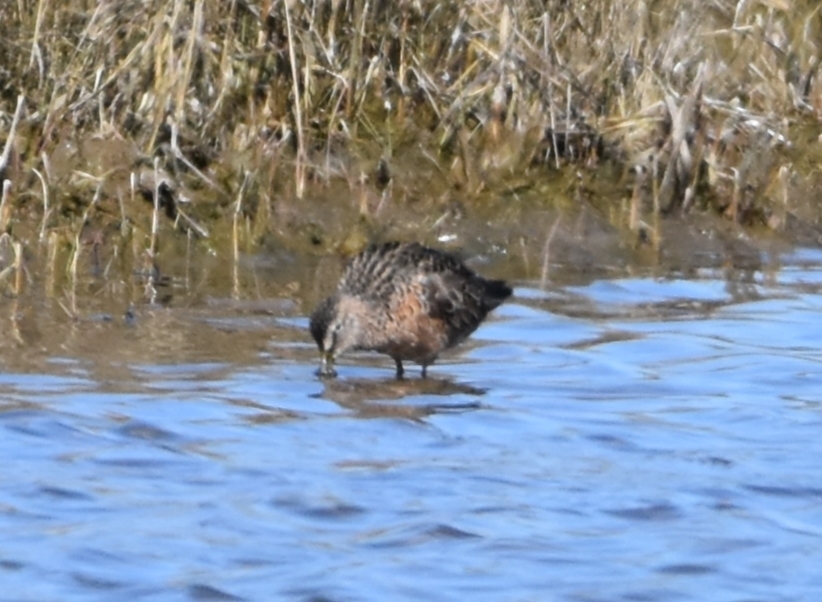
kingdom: Animalia
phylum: Chordata
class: Aves
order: Charadriiformes
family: Scolopacidae
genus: Limnodromus
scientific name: Limnodromus scolopaceus
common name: Long-billed dowitcher
